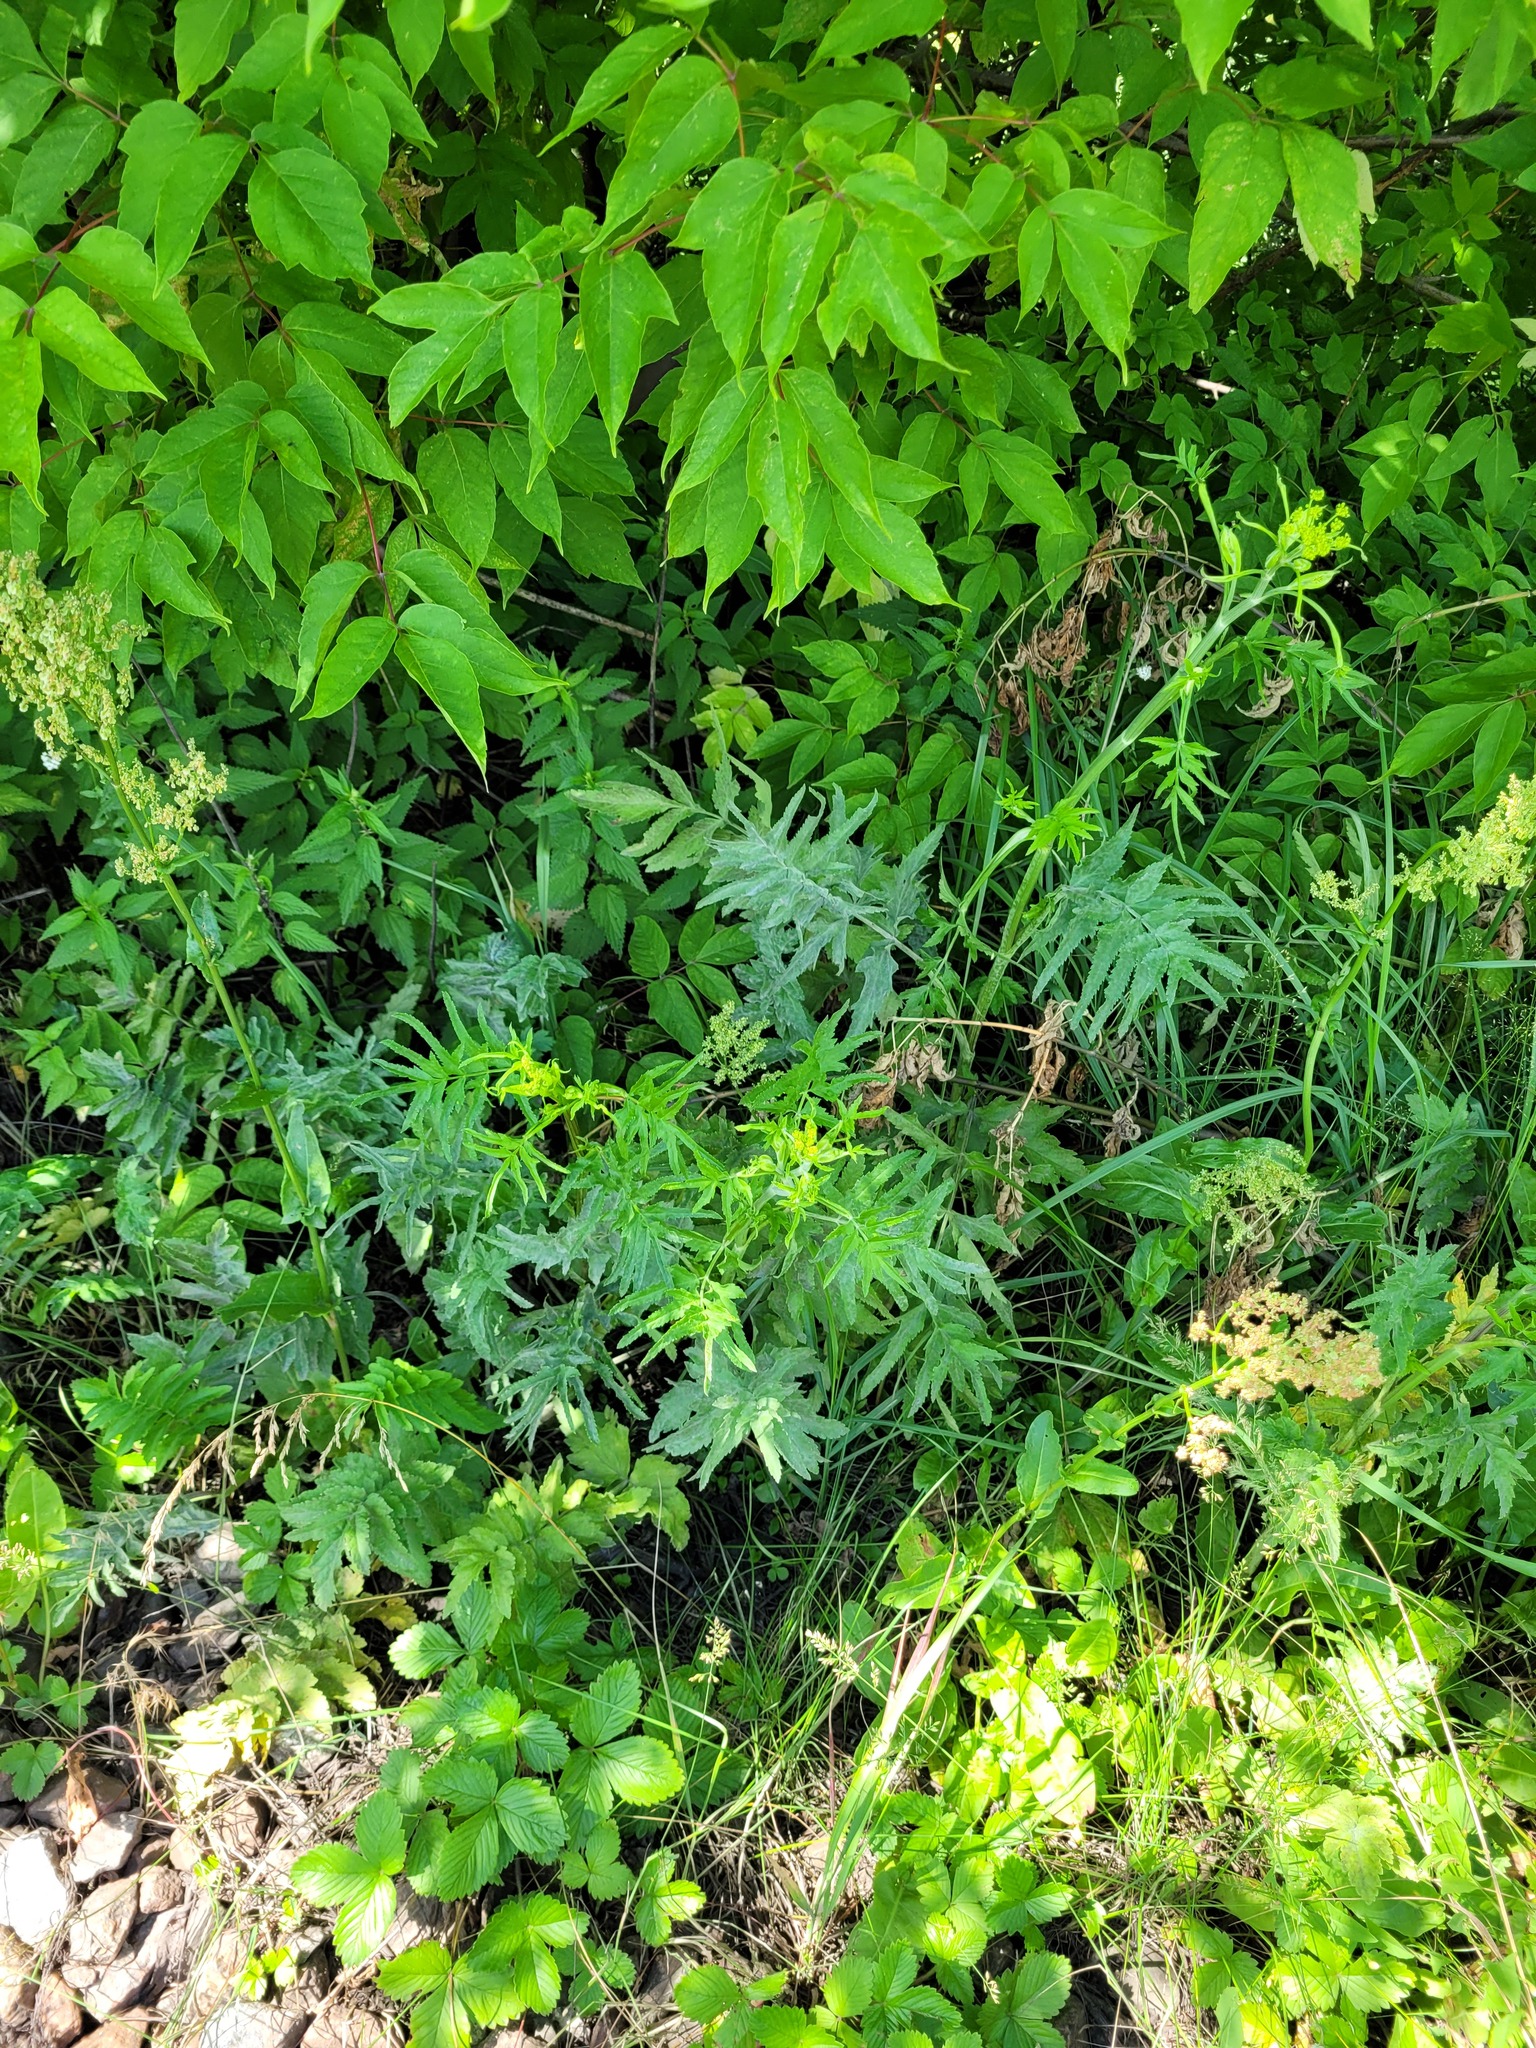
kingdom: Plantae
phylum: Tracheophyta
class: Magnoliopsida
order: Apiales
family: Apiaceae
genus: Pastinaca
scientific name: Pastinaca sativa
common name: Wild parsnip
